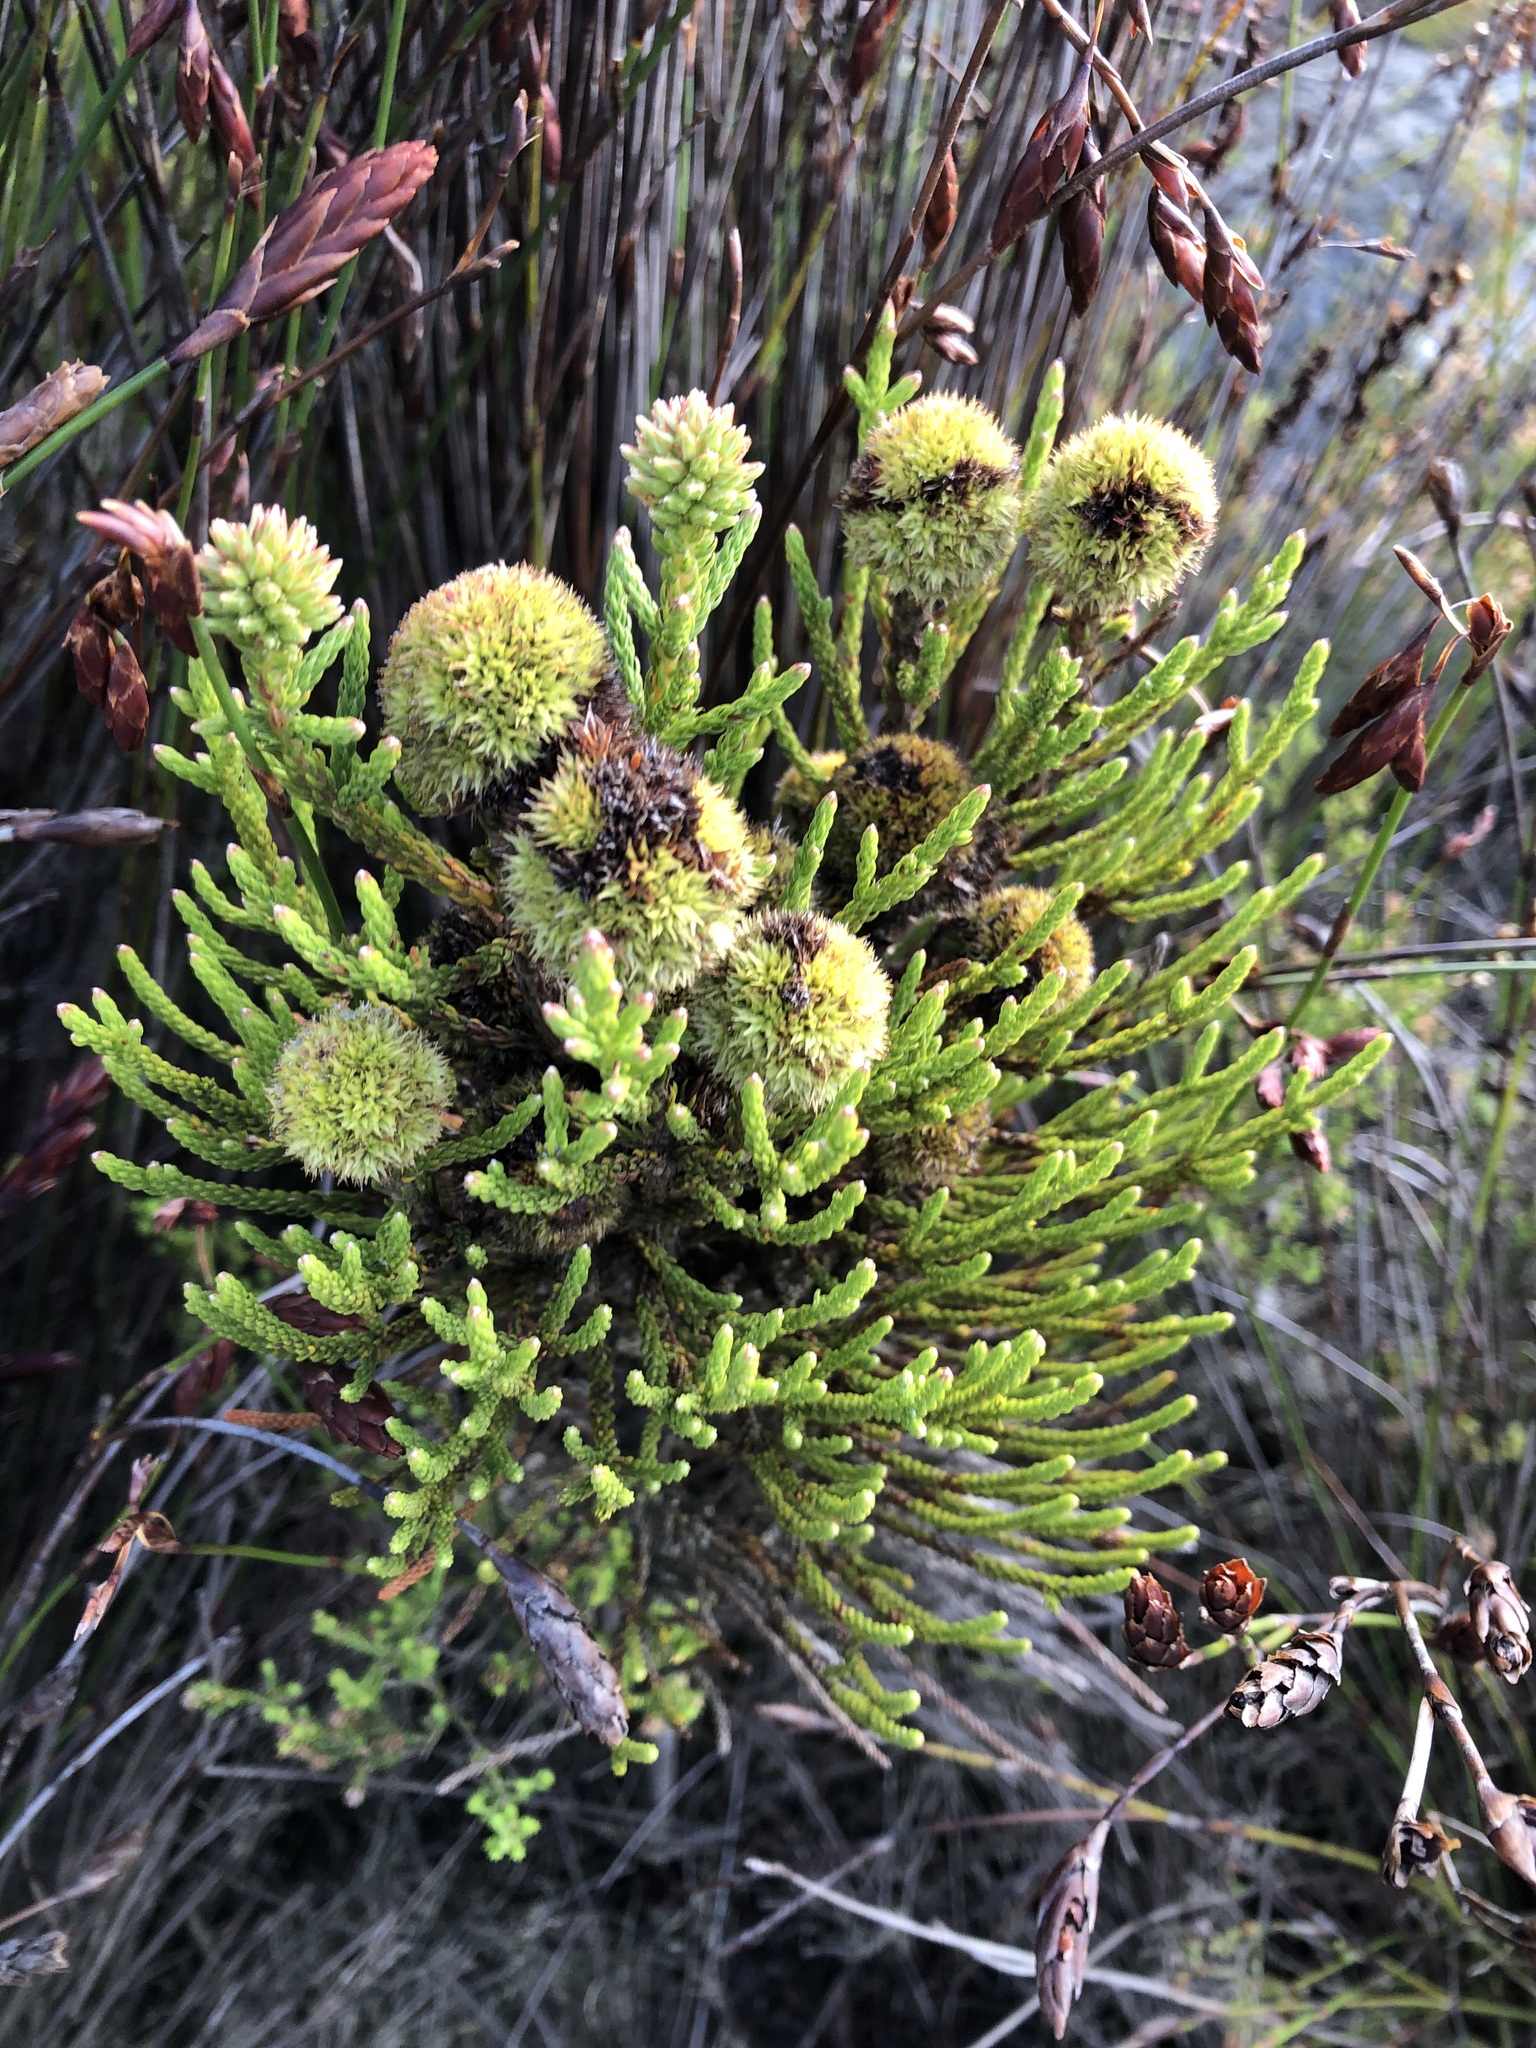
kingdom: Plantae
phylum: Tracheophyta
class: Magnoliopsida
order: Bruniales
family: Bruniaceae
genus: Brunia
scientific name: Brunia fragarioides
